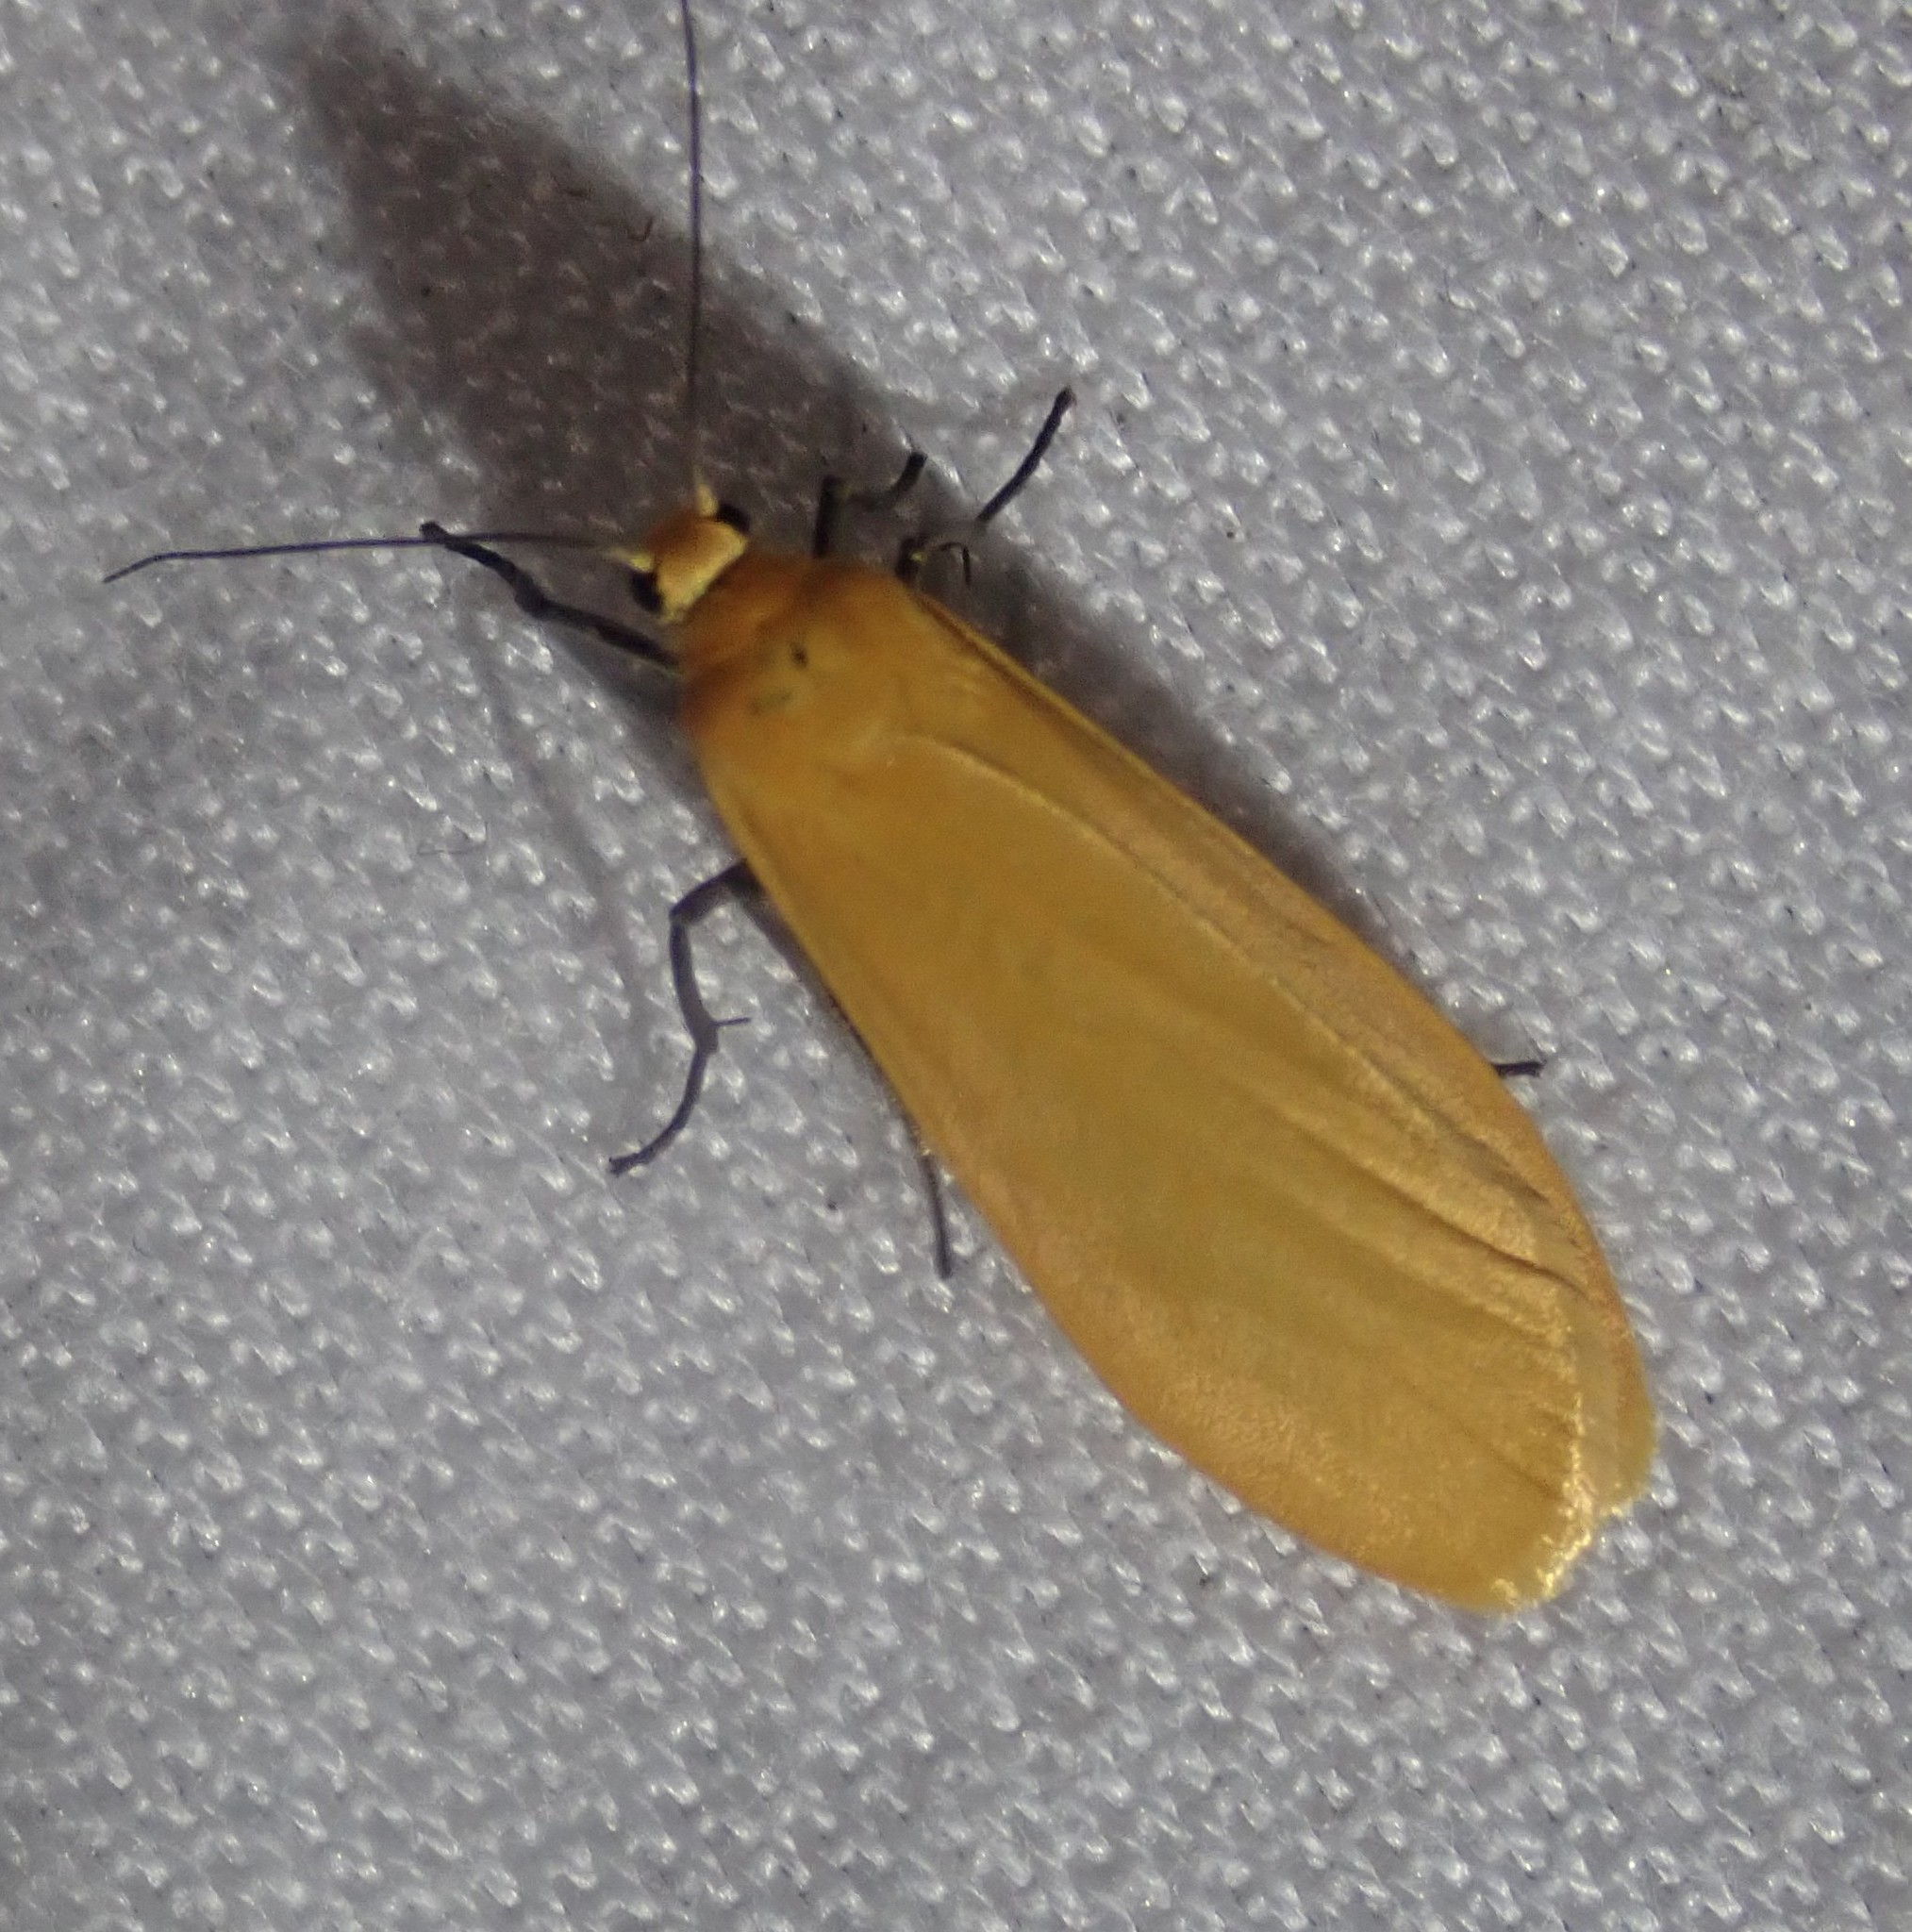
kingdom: Animalia
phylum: Arthropoda
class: Insecta
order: Lepidoptera
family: Erebidae
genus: Wittia
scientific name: Wittia sororcula
